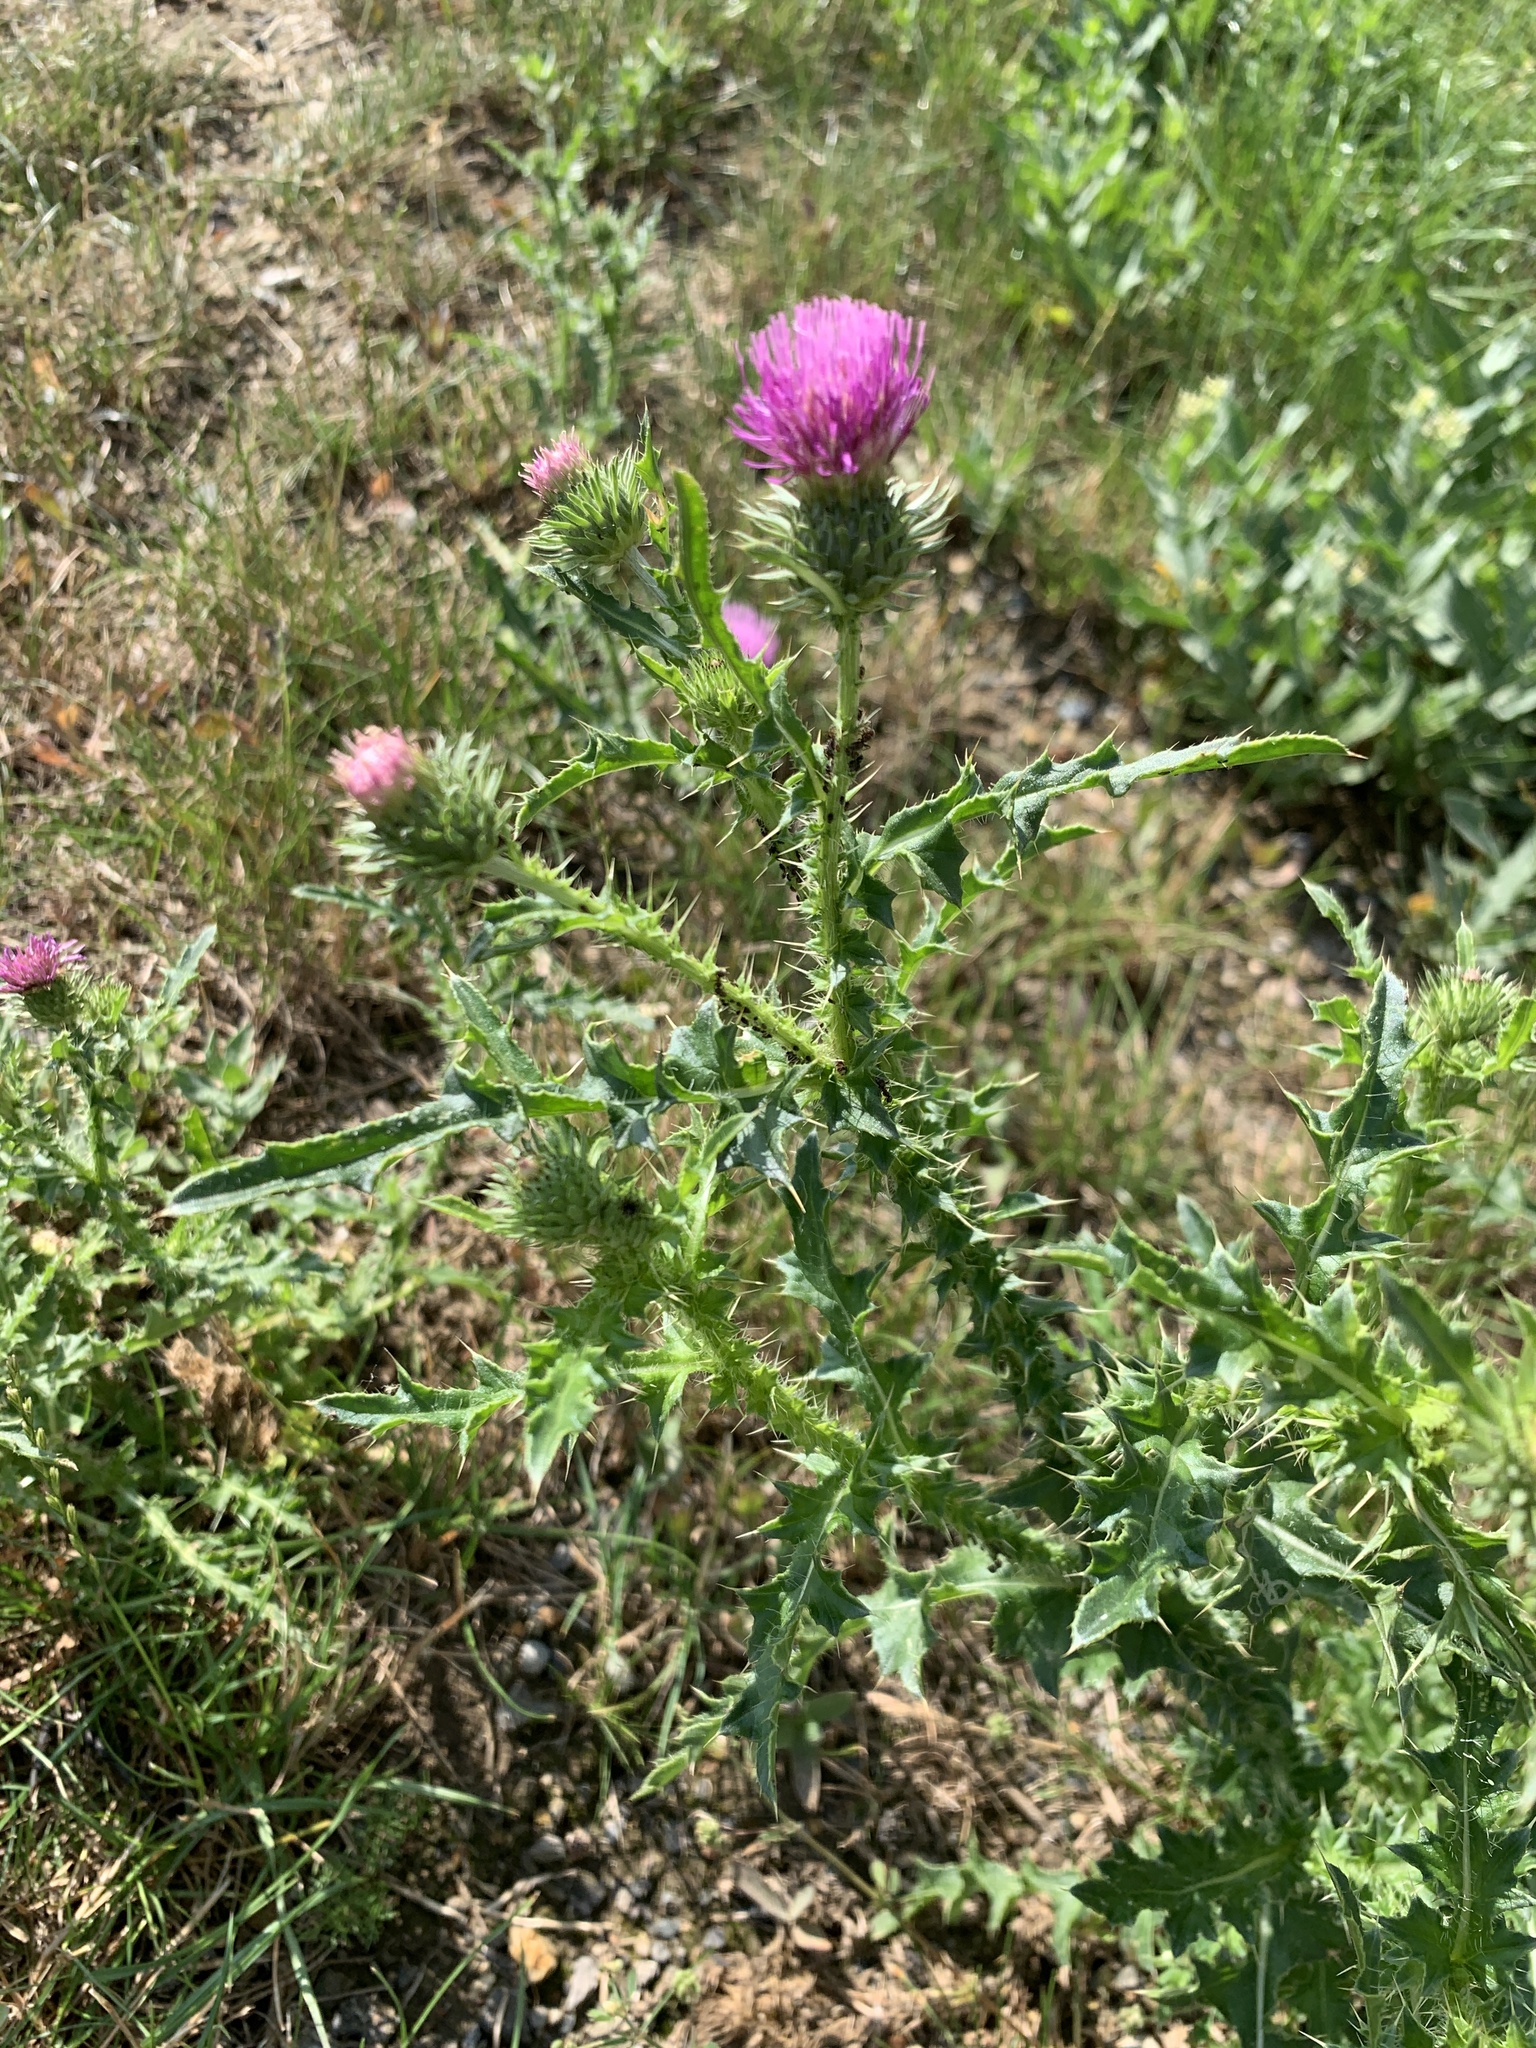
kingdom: Plantae
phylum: Tracheophyta
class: Magnoliopsida
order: Asterales
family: Asteraceae
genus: Carduus
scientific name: Carduus acanthoides
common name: Plumeless thistle
